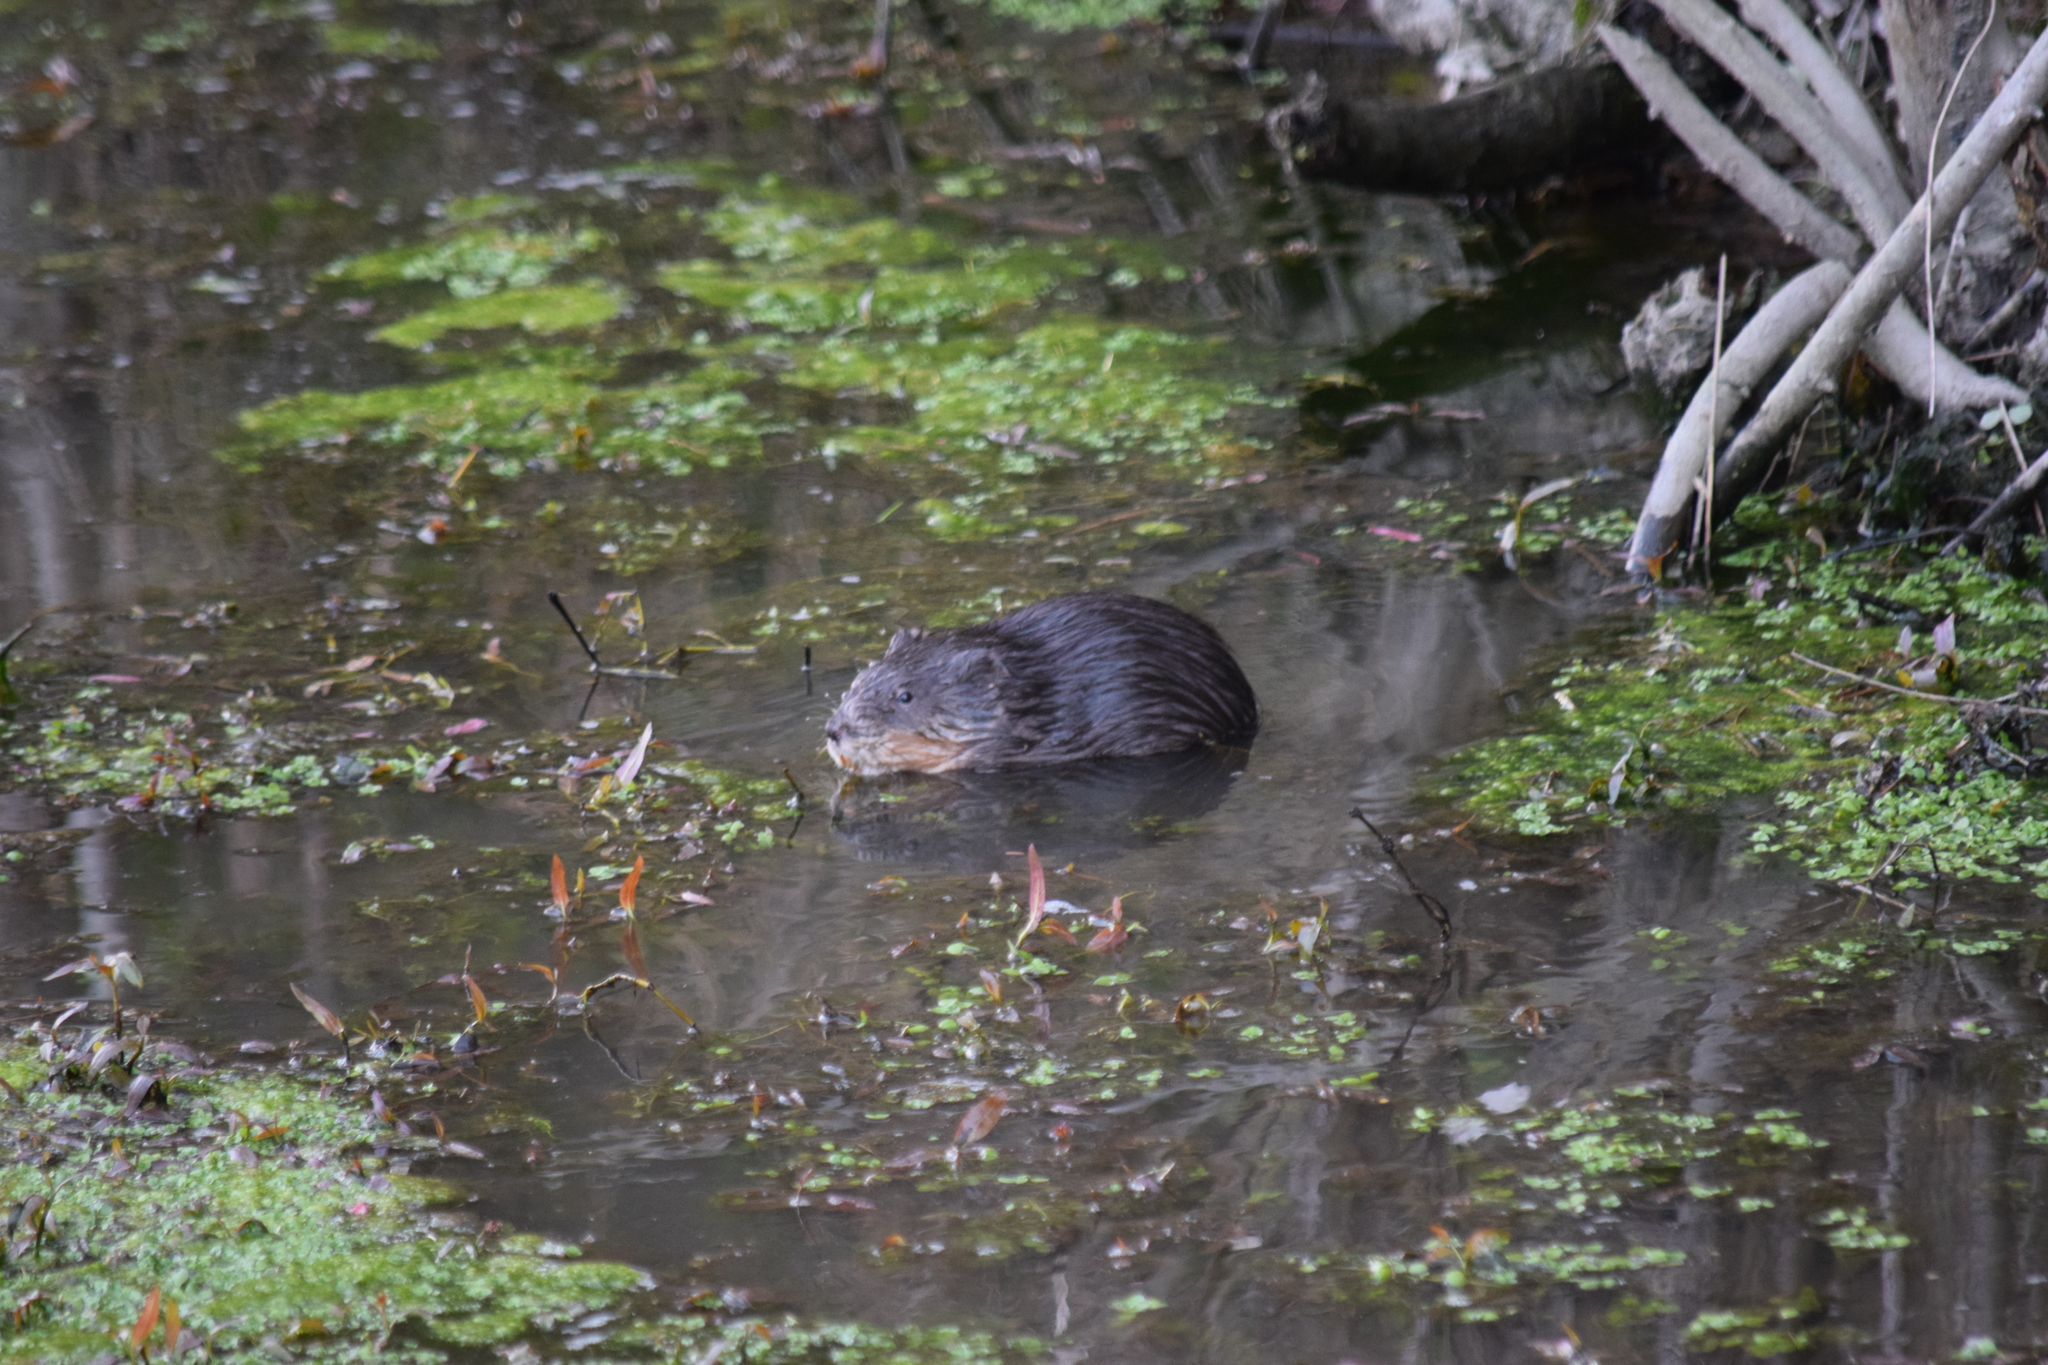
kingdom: Animalia
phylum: Chordata
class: Mammalia
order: Rodentia
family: Cricetidae
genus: Ondatra
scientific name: Ondatra zibethicus
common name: Muskrat
